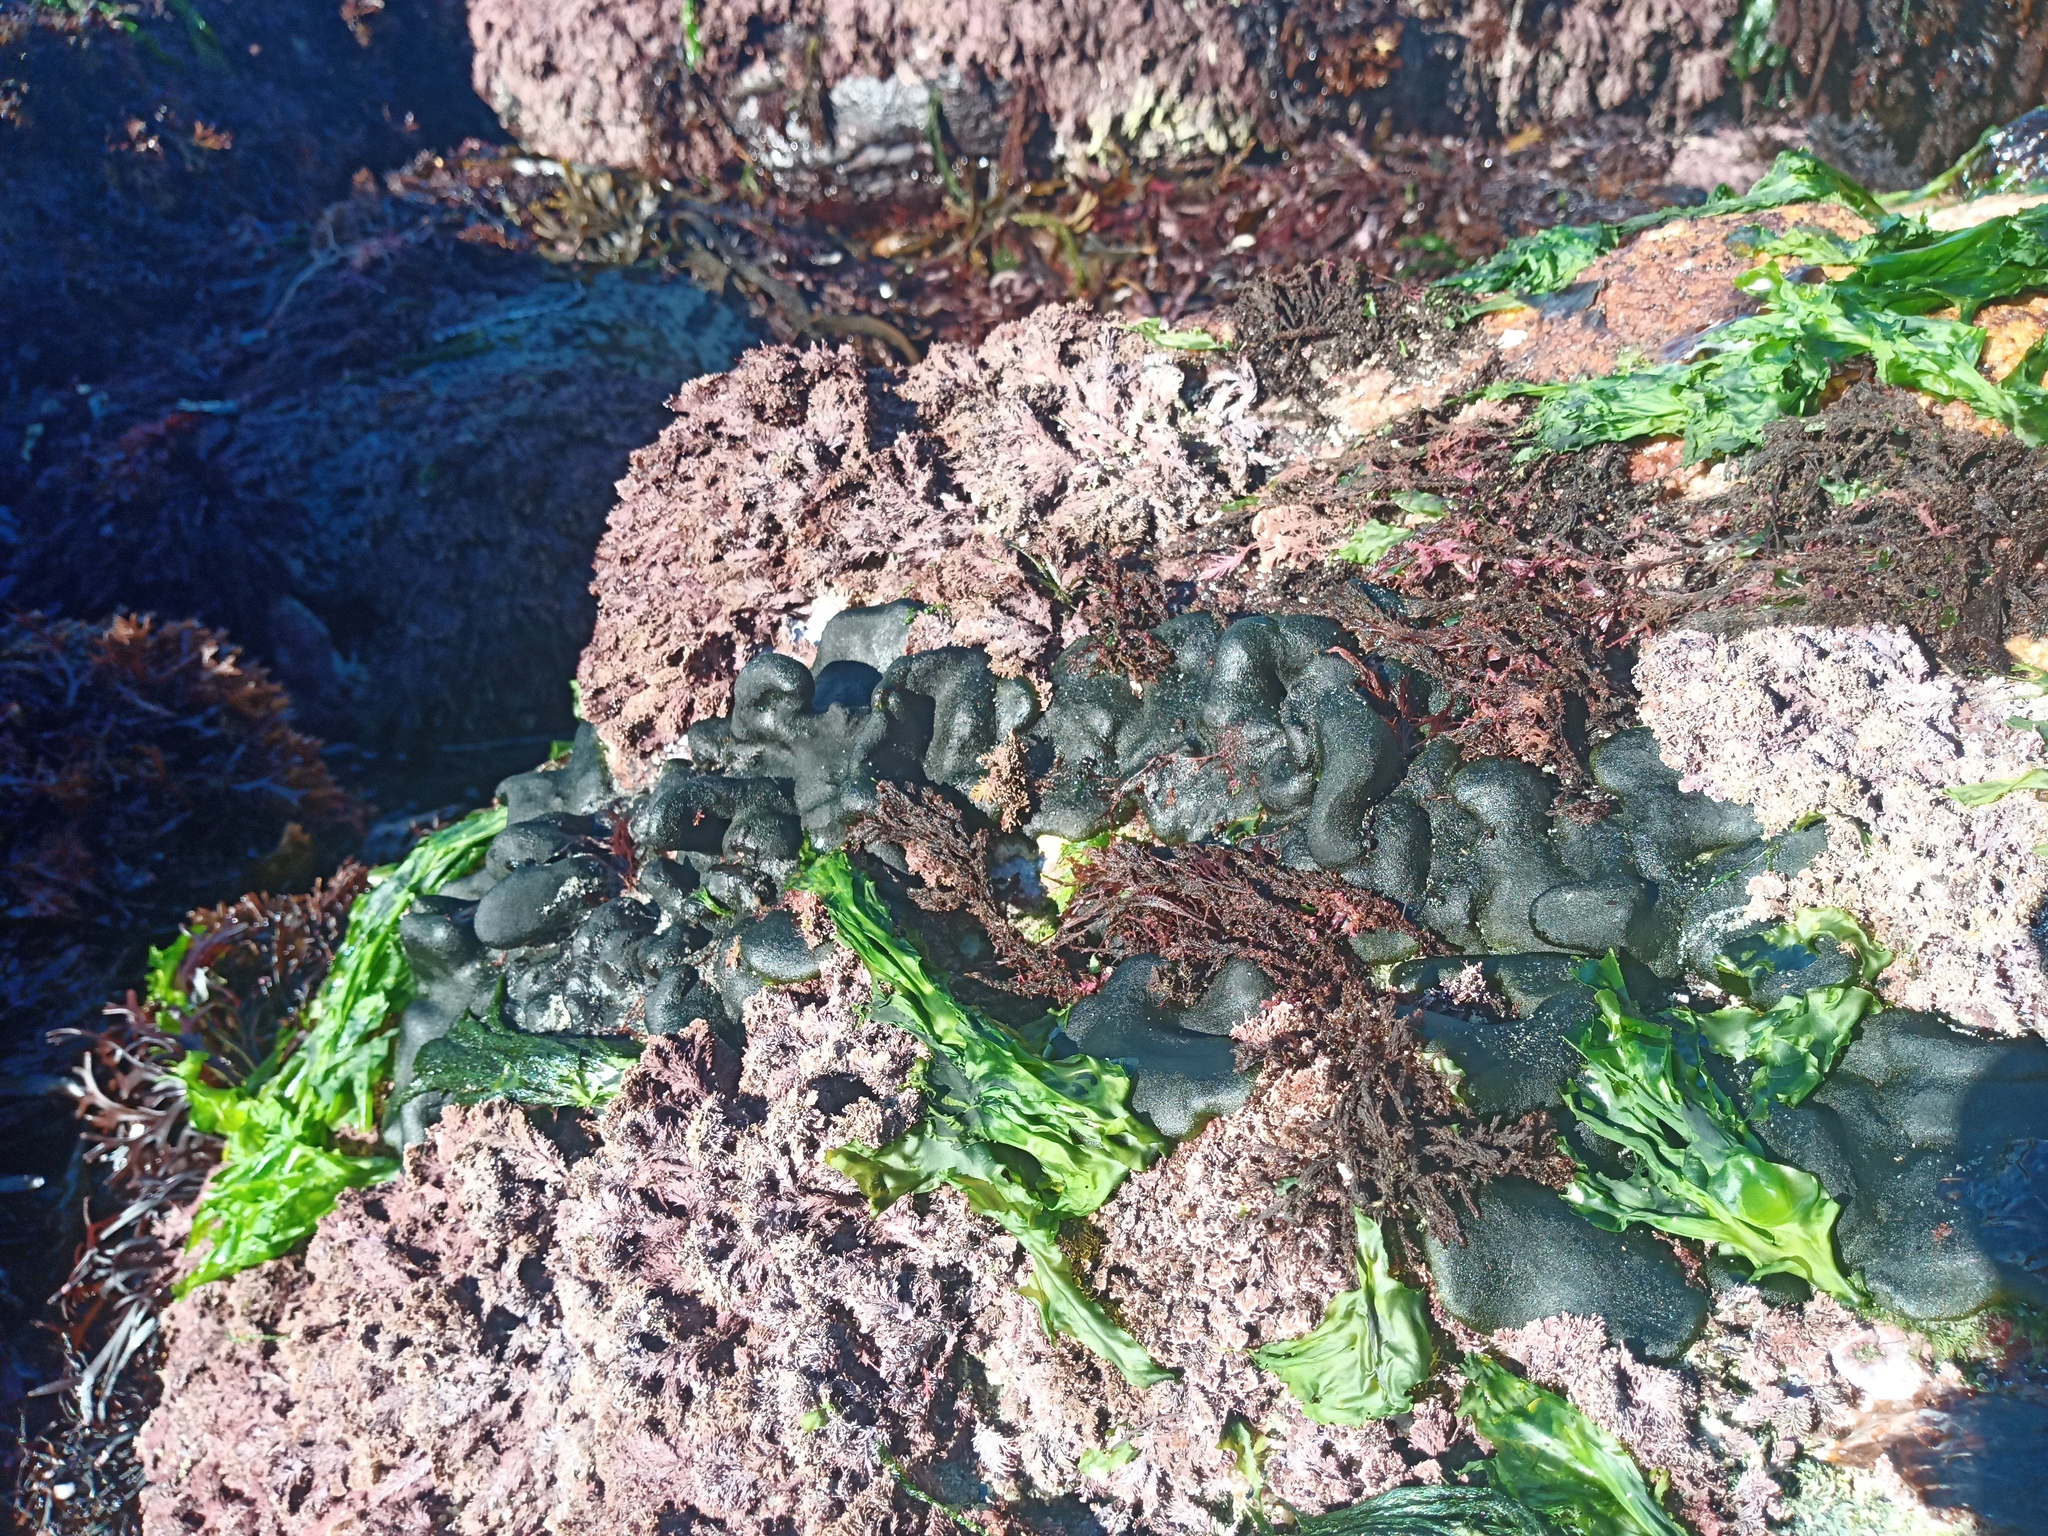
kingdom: Plantae
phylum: Chlorophyta
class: Ulvophyceae
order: Bryopsidales
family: Codiaceae
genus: Codium
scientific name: Codium convolutum
